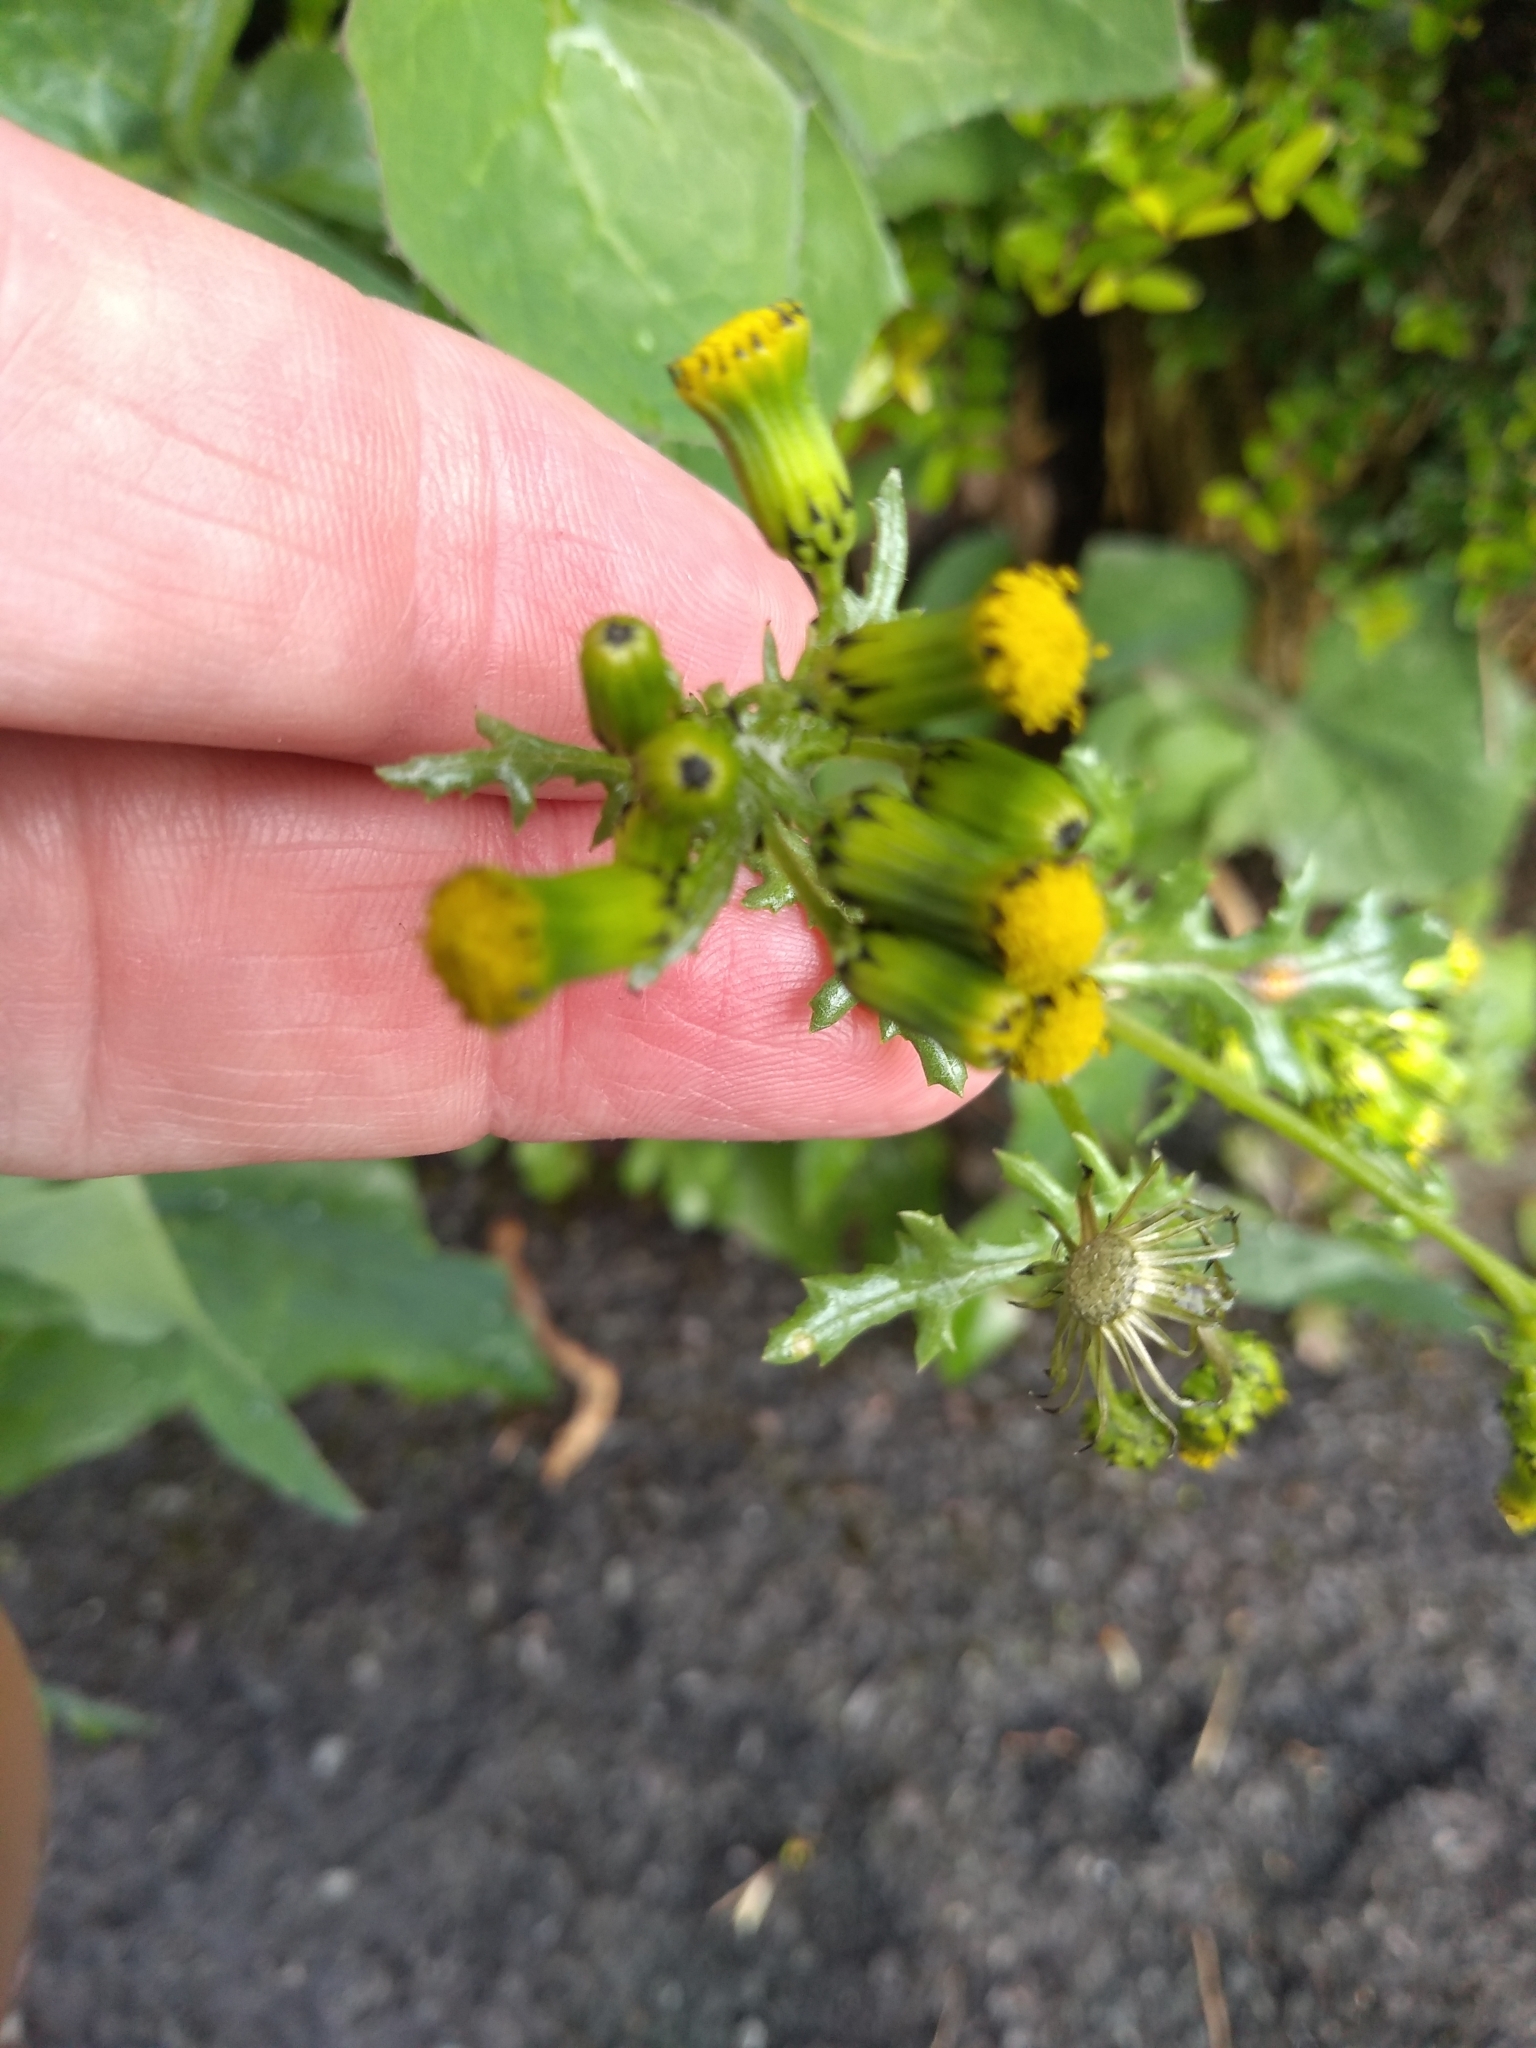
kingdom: Plantae
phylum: Tracheophyta
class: Magnoliopsida
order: Asterales
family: Asteraceae
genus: Senecio
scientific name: Senecio vulgaris
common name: Old-man-in-the-spring
